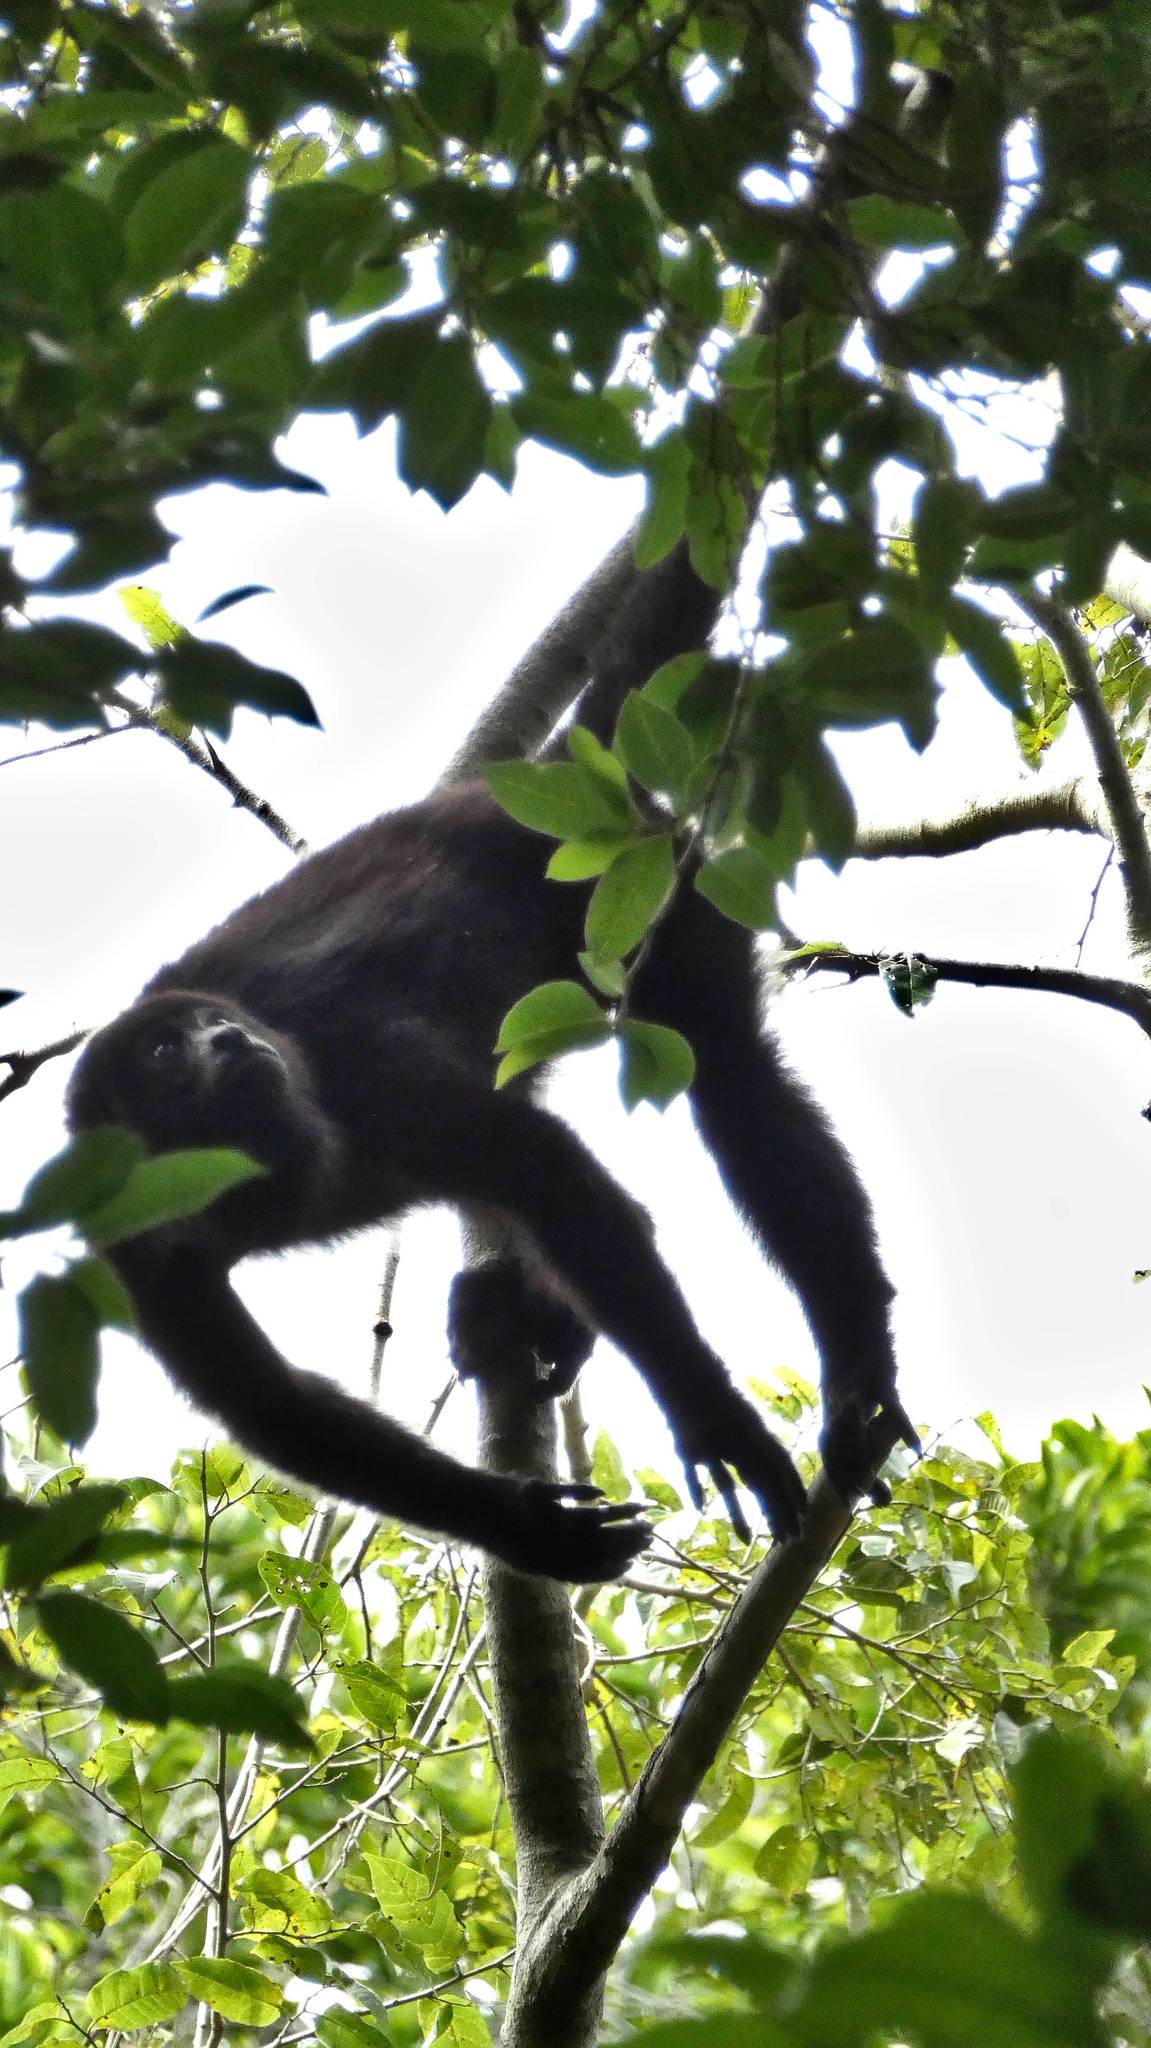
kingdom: Animalia
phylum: Chordata
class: Mammalia
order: Primates
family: Atelidae
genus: Alouatta
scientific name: Alouatta pigra
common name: Guatemalan black howler
